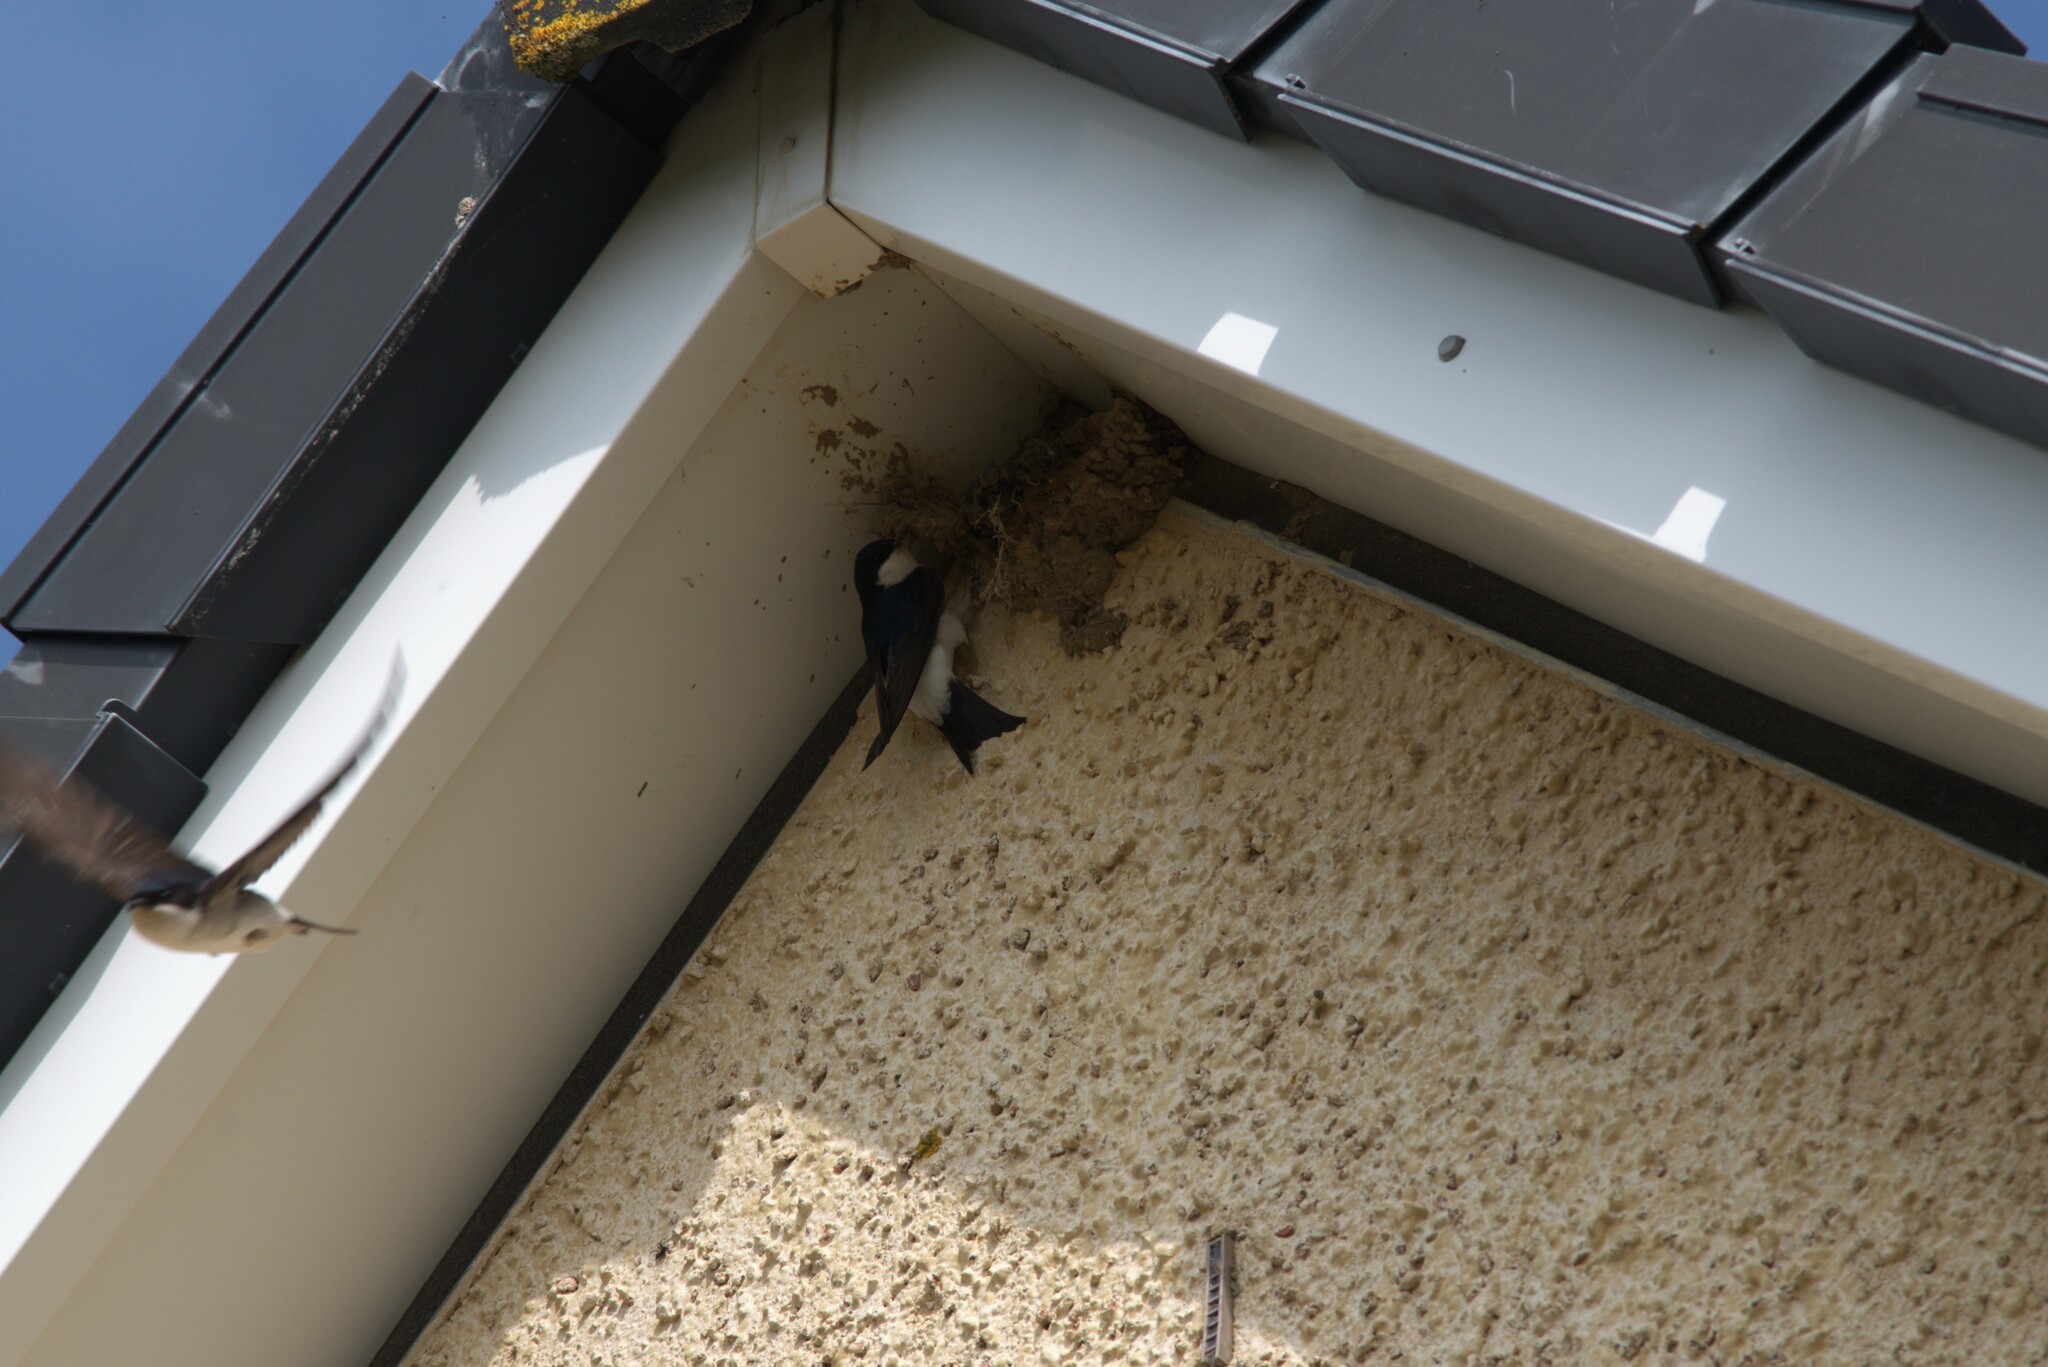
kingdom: Animalia
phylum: Chordata
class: Aves
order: Passeriformes
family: Hirundinidae
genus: Delichon
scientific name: Delichon urbicum
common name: Common house martin
